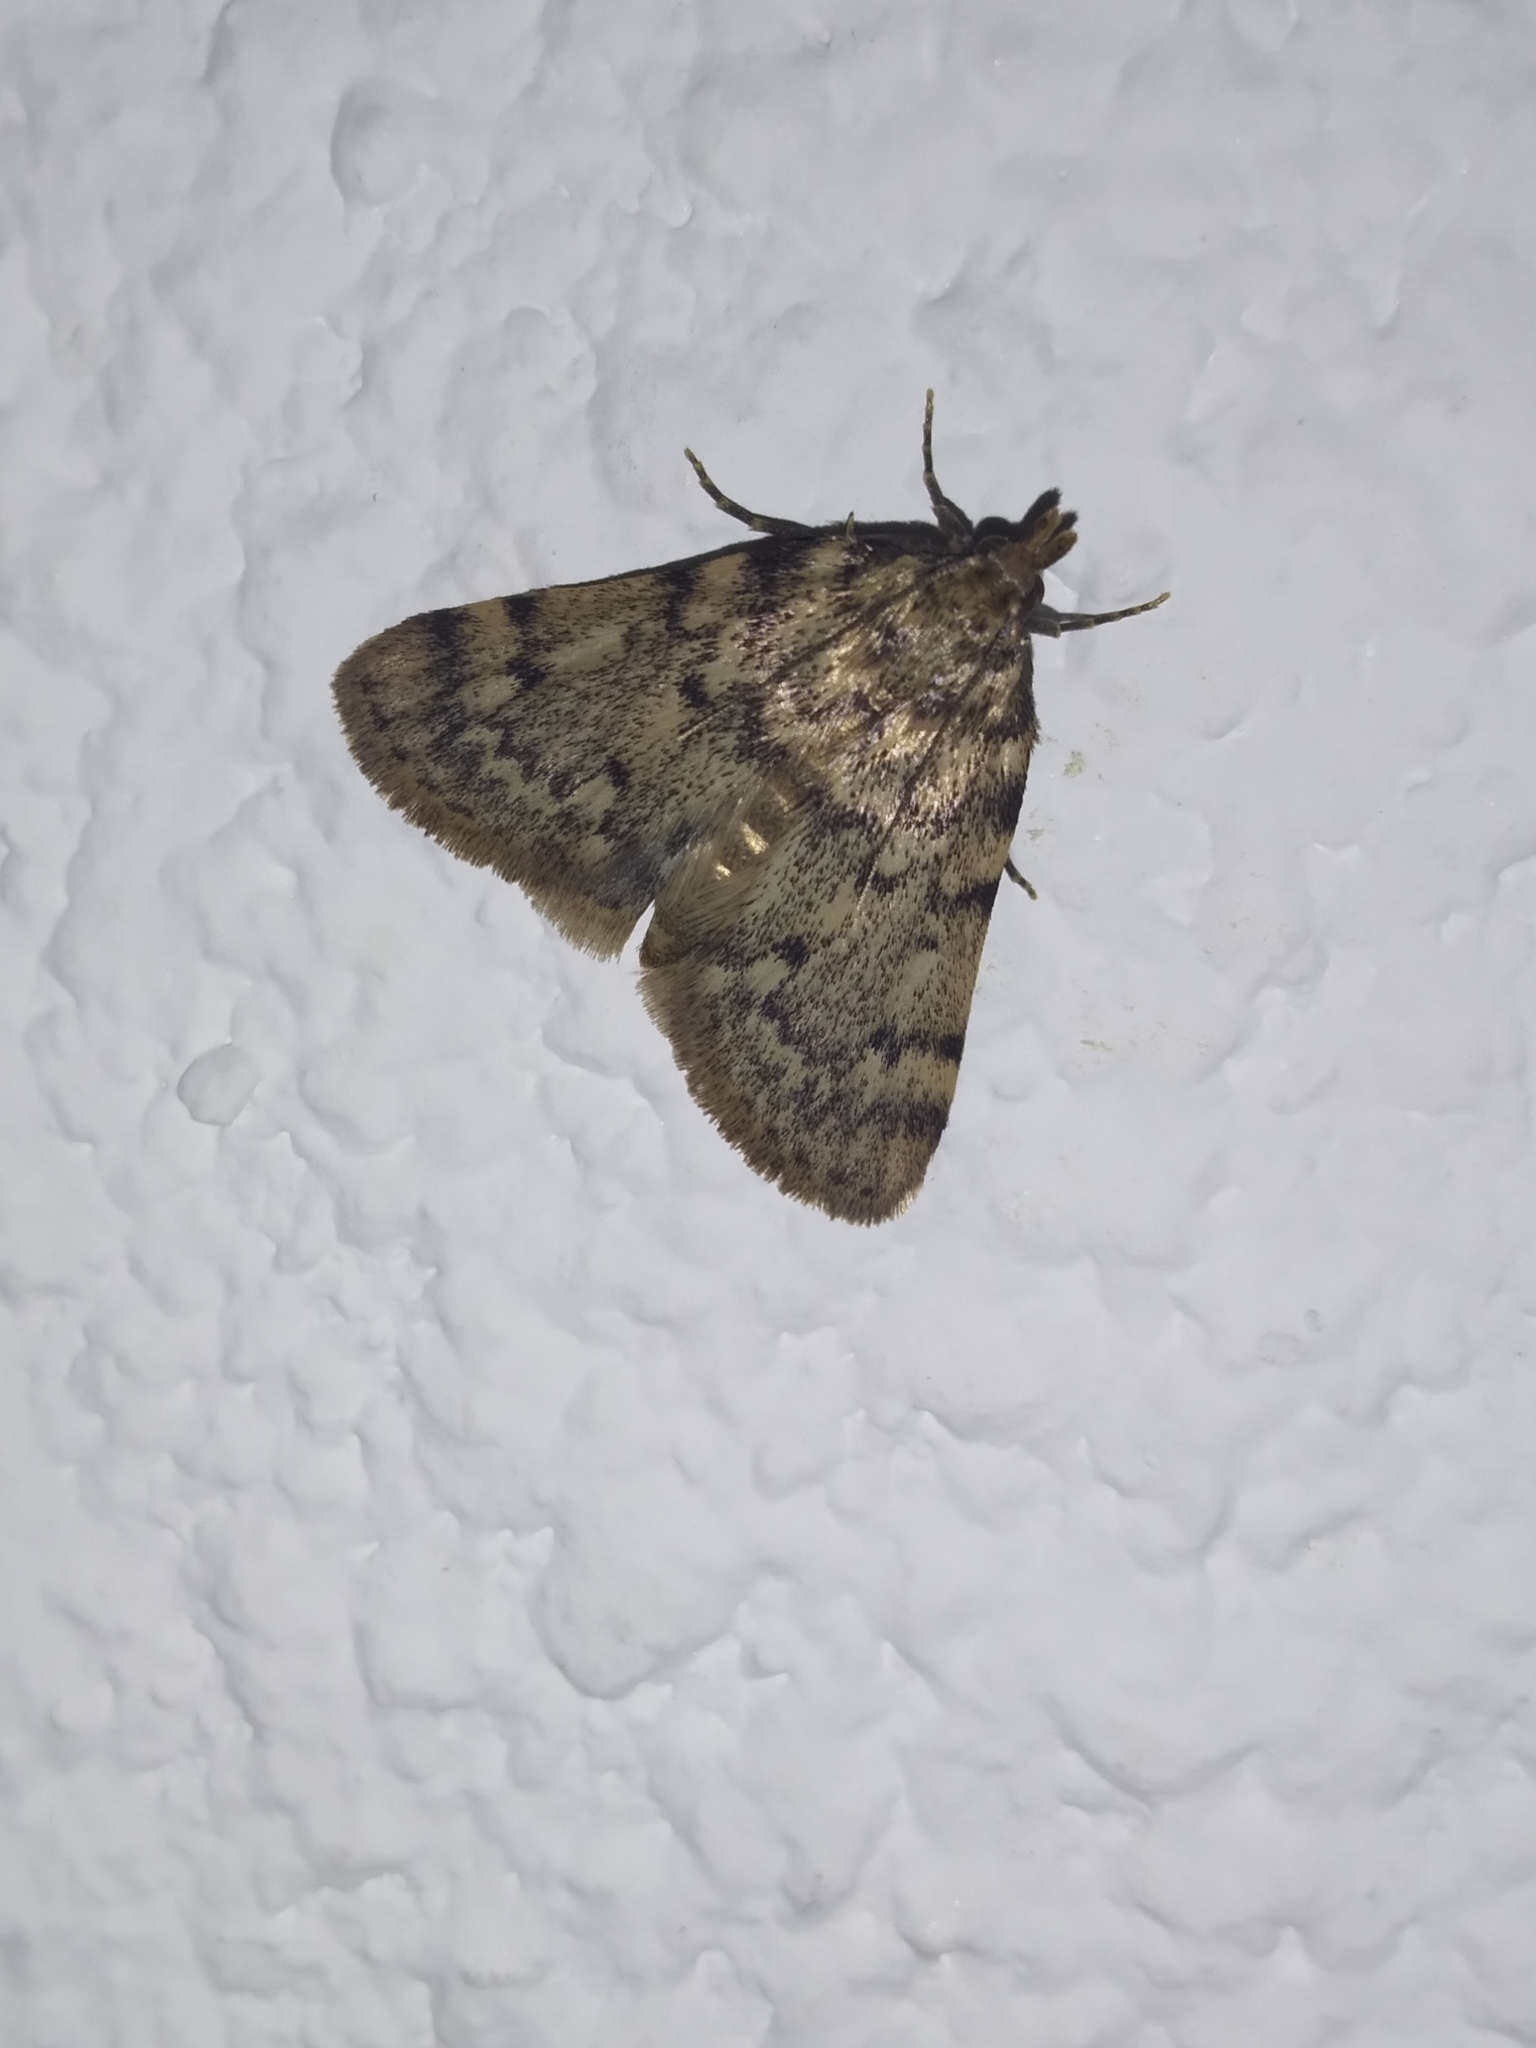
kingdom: Animalia
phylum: Arthropoda
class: Insecta
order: Lepidoptera
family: Pyralidae
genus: Aglossa
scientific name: Aglossa pinguinalis
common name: Large tabby
